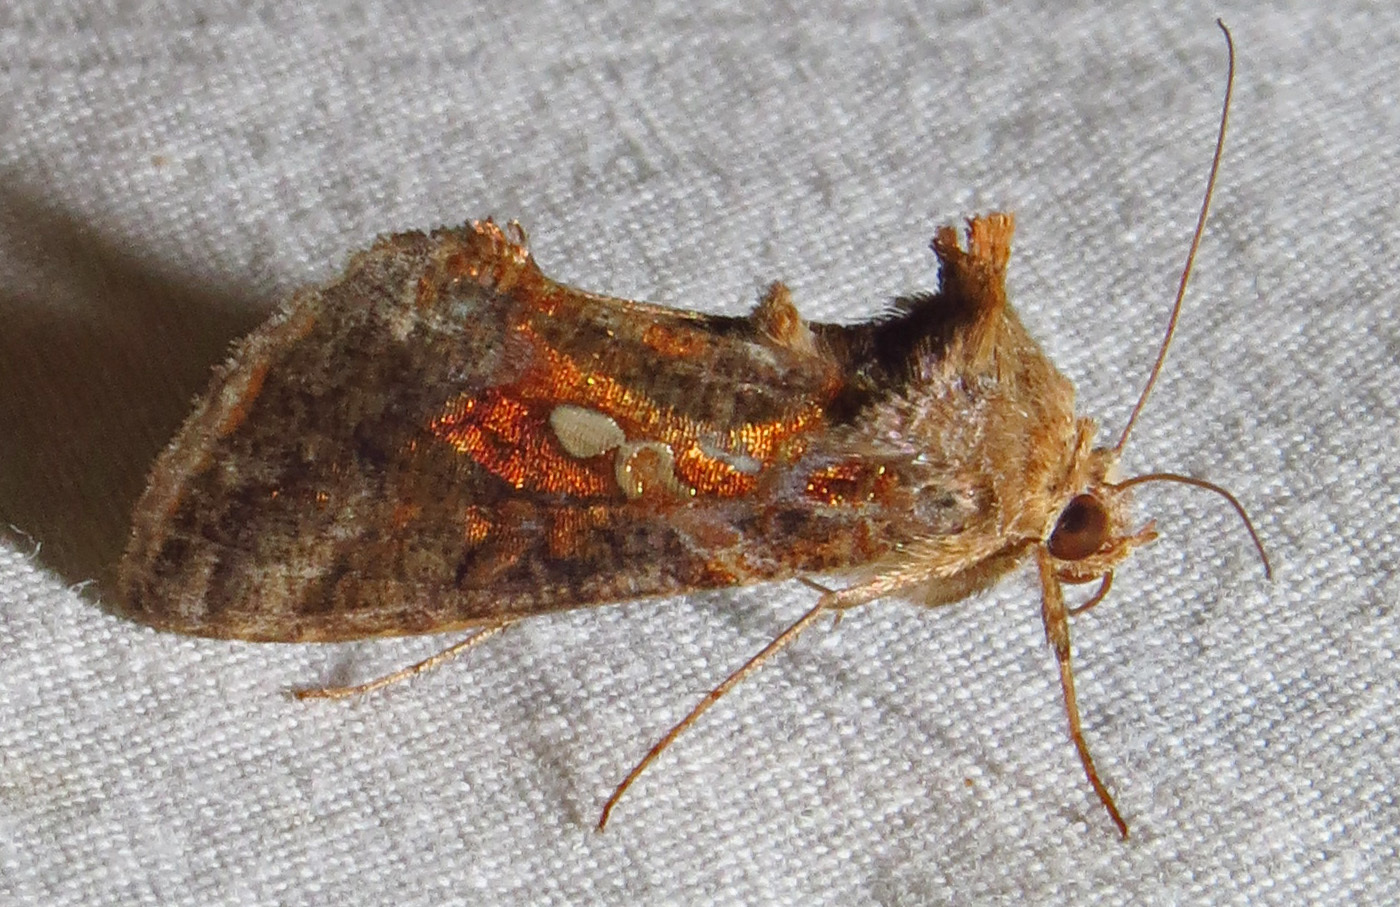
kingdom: Animalia
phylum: Arthropoda
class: Insecta
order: Lepidoptera
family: Noctuidae
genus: Chrysodeixis
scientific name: Chrysodeixis includens
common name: Cutworm moth
